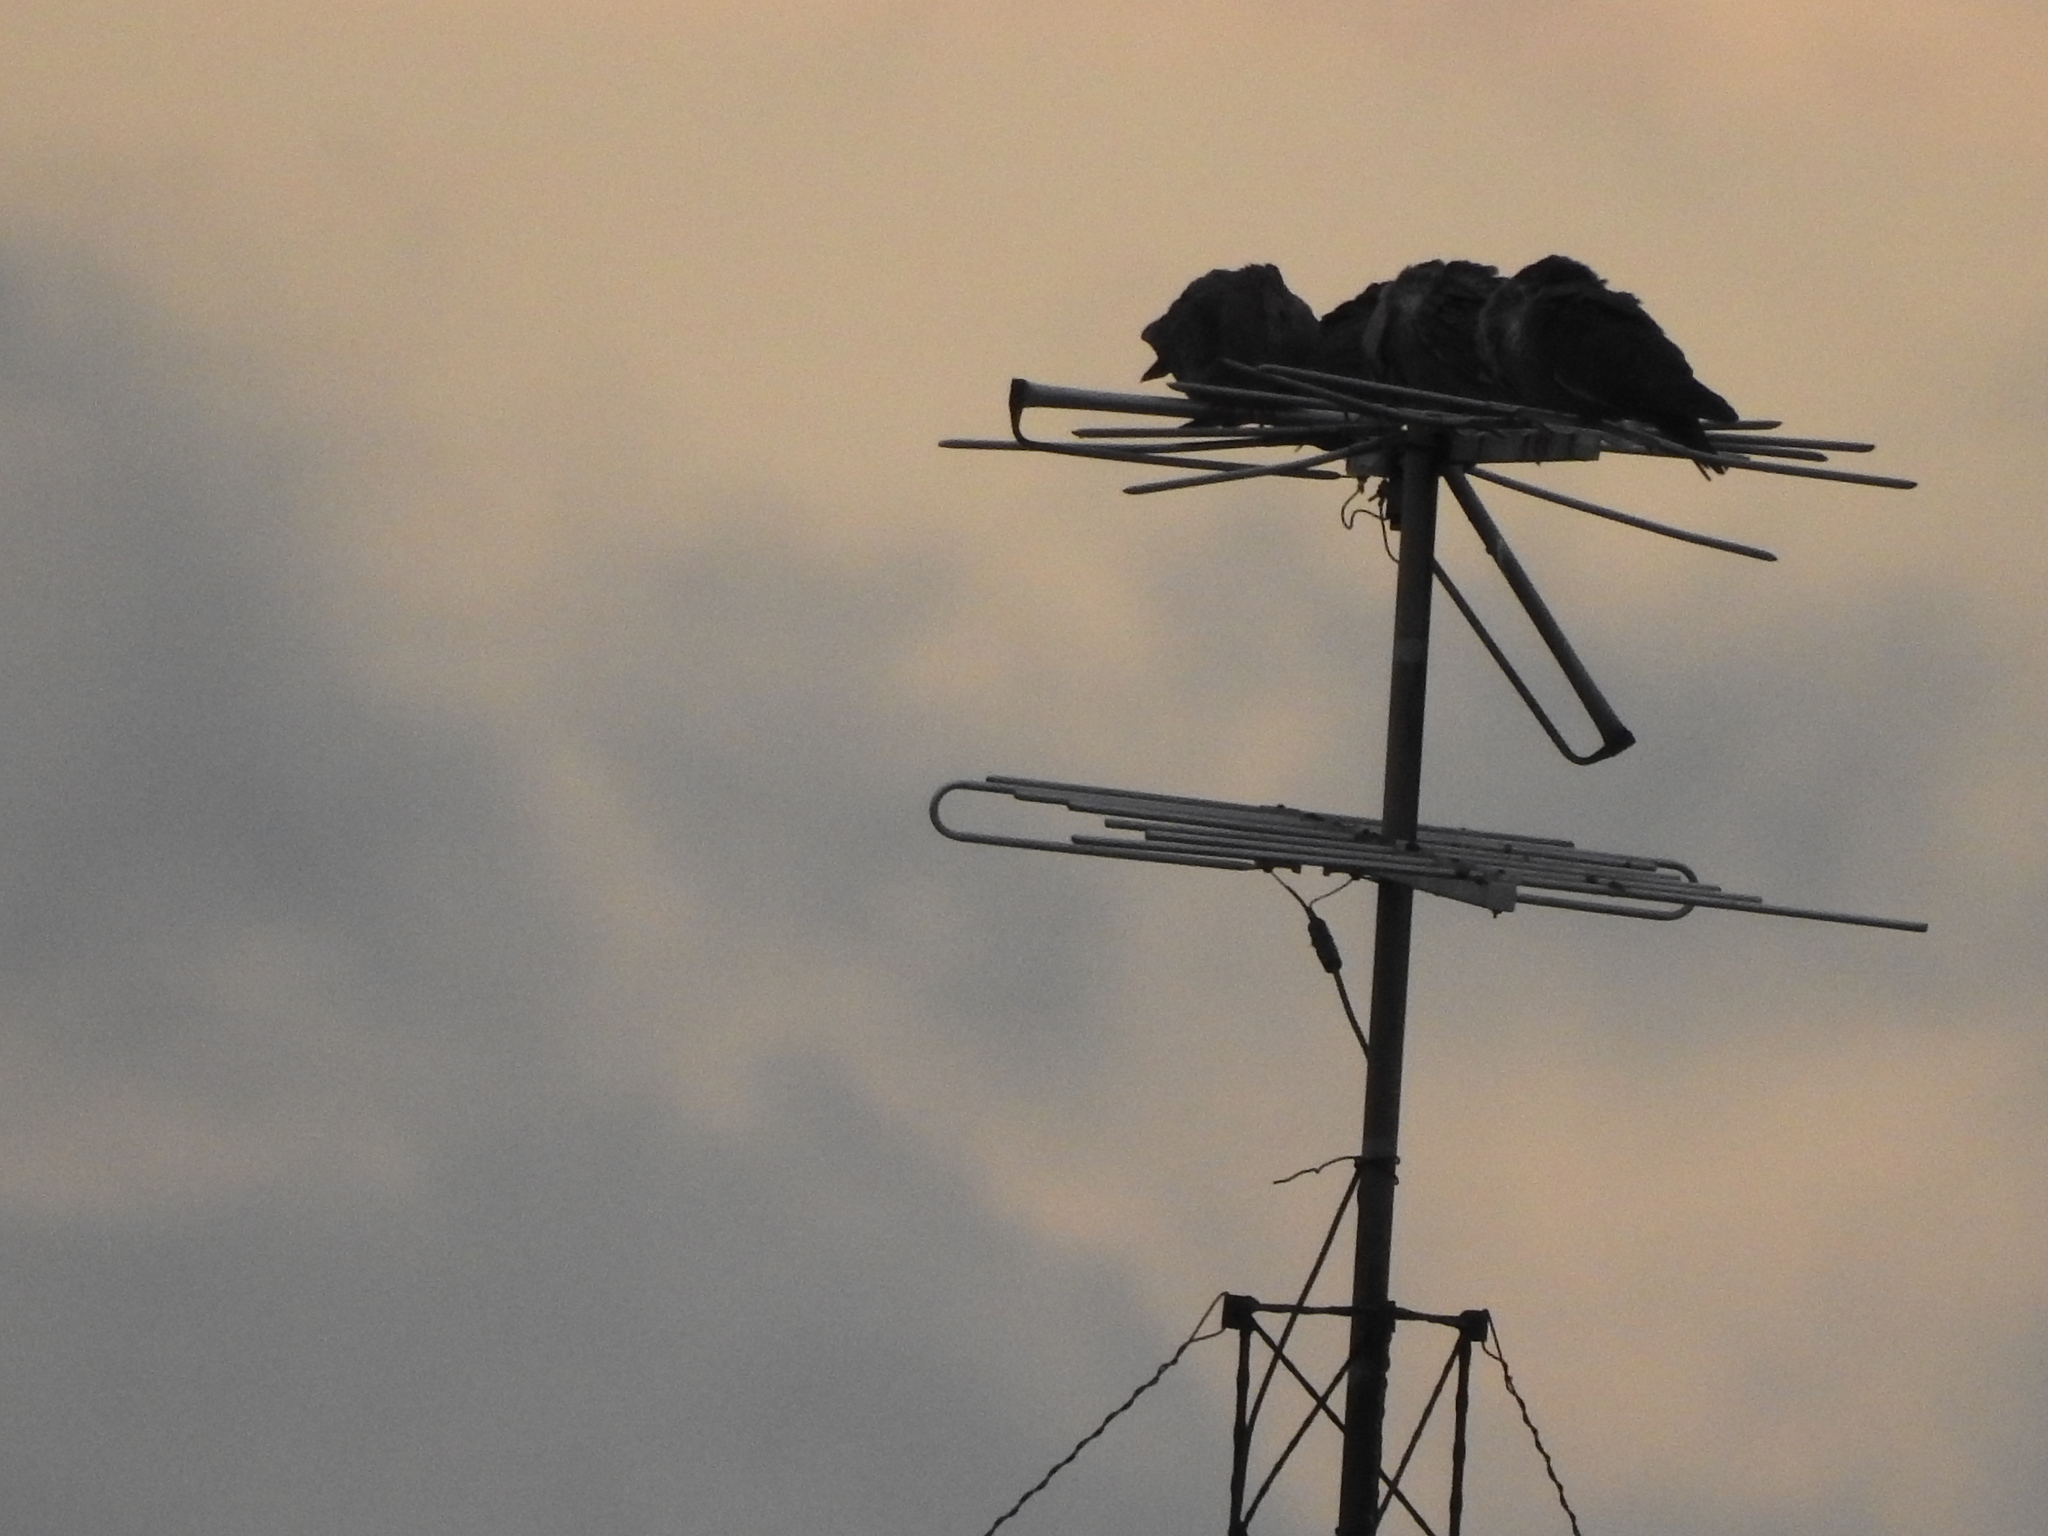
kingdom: Animalia
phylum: Chordata
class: Aves
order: Columbiformes
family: Columbidae
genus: Columba
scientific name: Columba livia
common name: Rock pigeon
